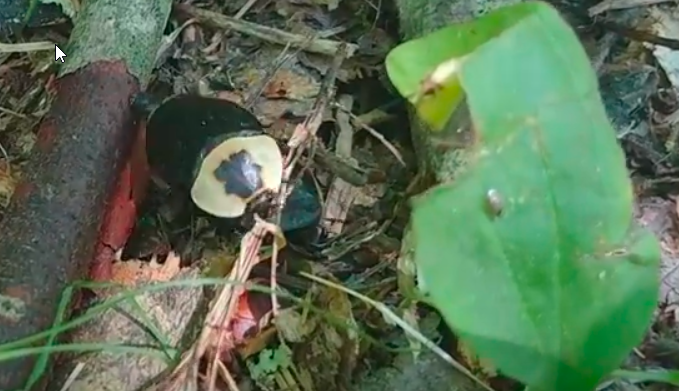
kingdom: Animalia
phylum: Arthropoda
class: Insecta
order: Coleoptera
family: Staphylinidae
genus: Necrophila
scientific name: Necrophila americana
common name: American carrion beetle
